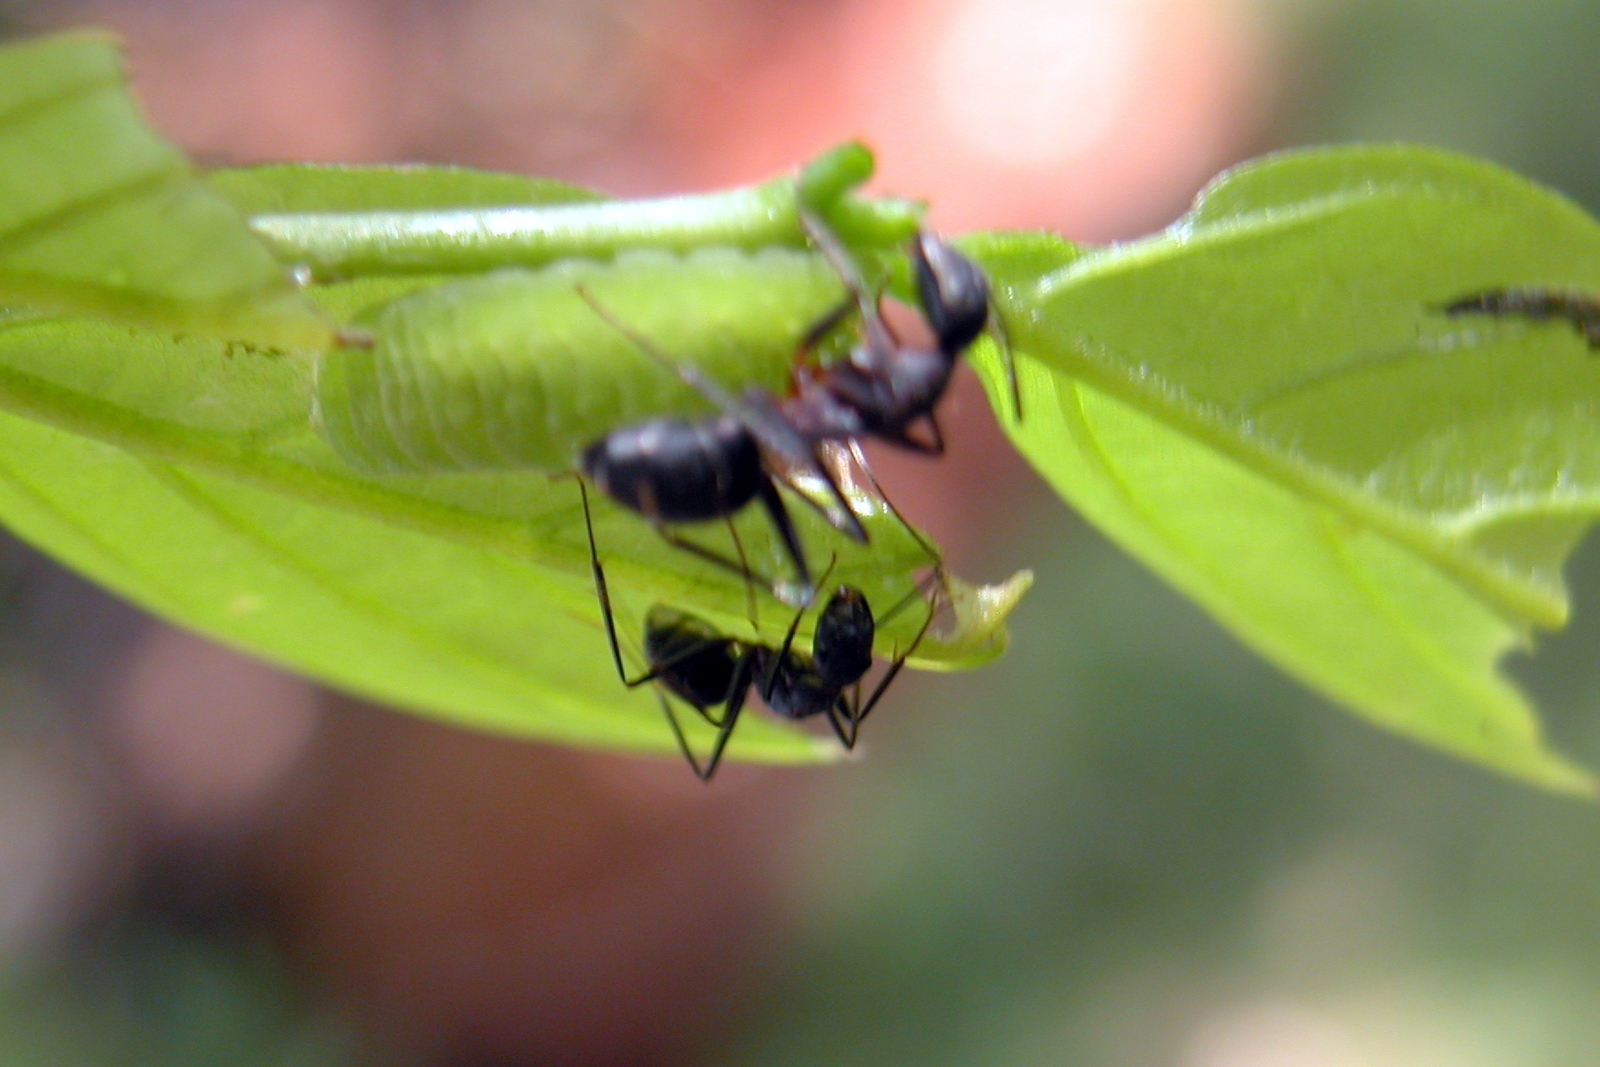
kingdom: Animalia
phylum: Arthropoda
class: Insecta
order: Hymenoptera
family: Formicidae
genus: Camponotus
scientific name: Camponotus compressus
